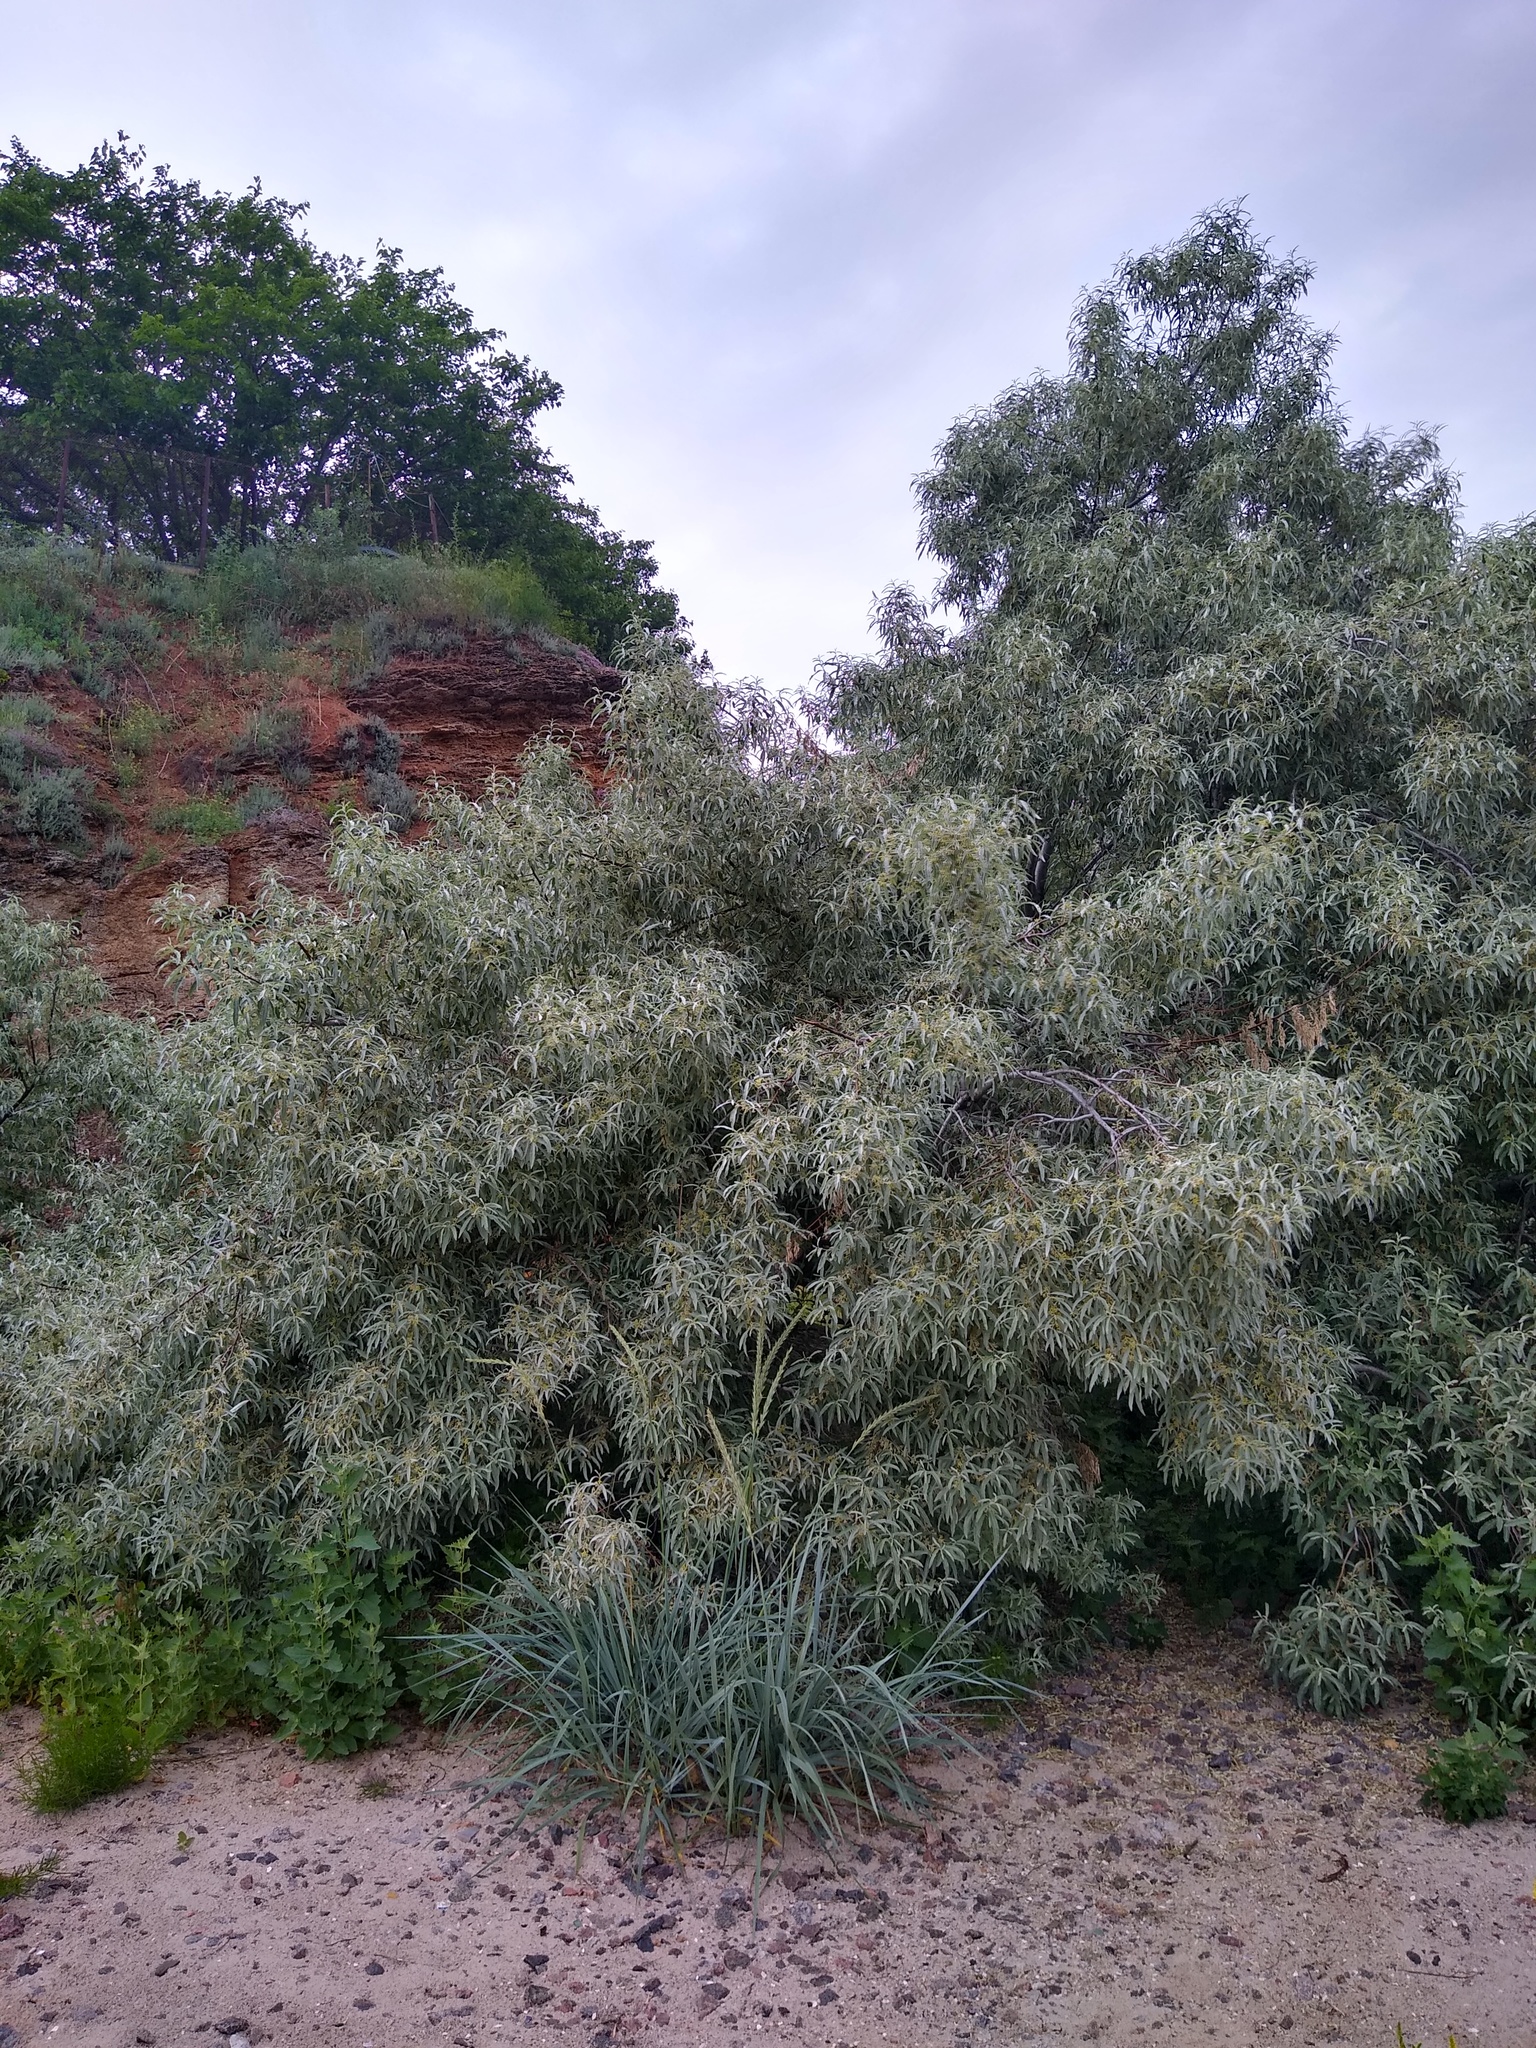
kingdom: Plantae
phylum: Tracheophyta
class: Magnoliopsida
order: Rosales
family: Elaeagnaceae
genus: Elaeagnus
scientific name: Elaeagnus angustifolia
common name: Russian olive
